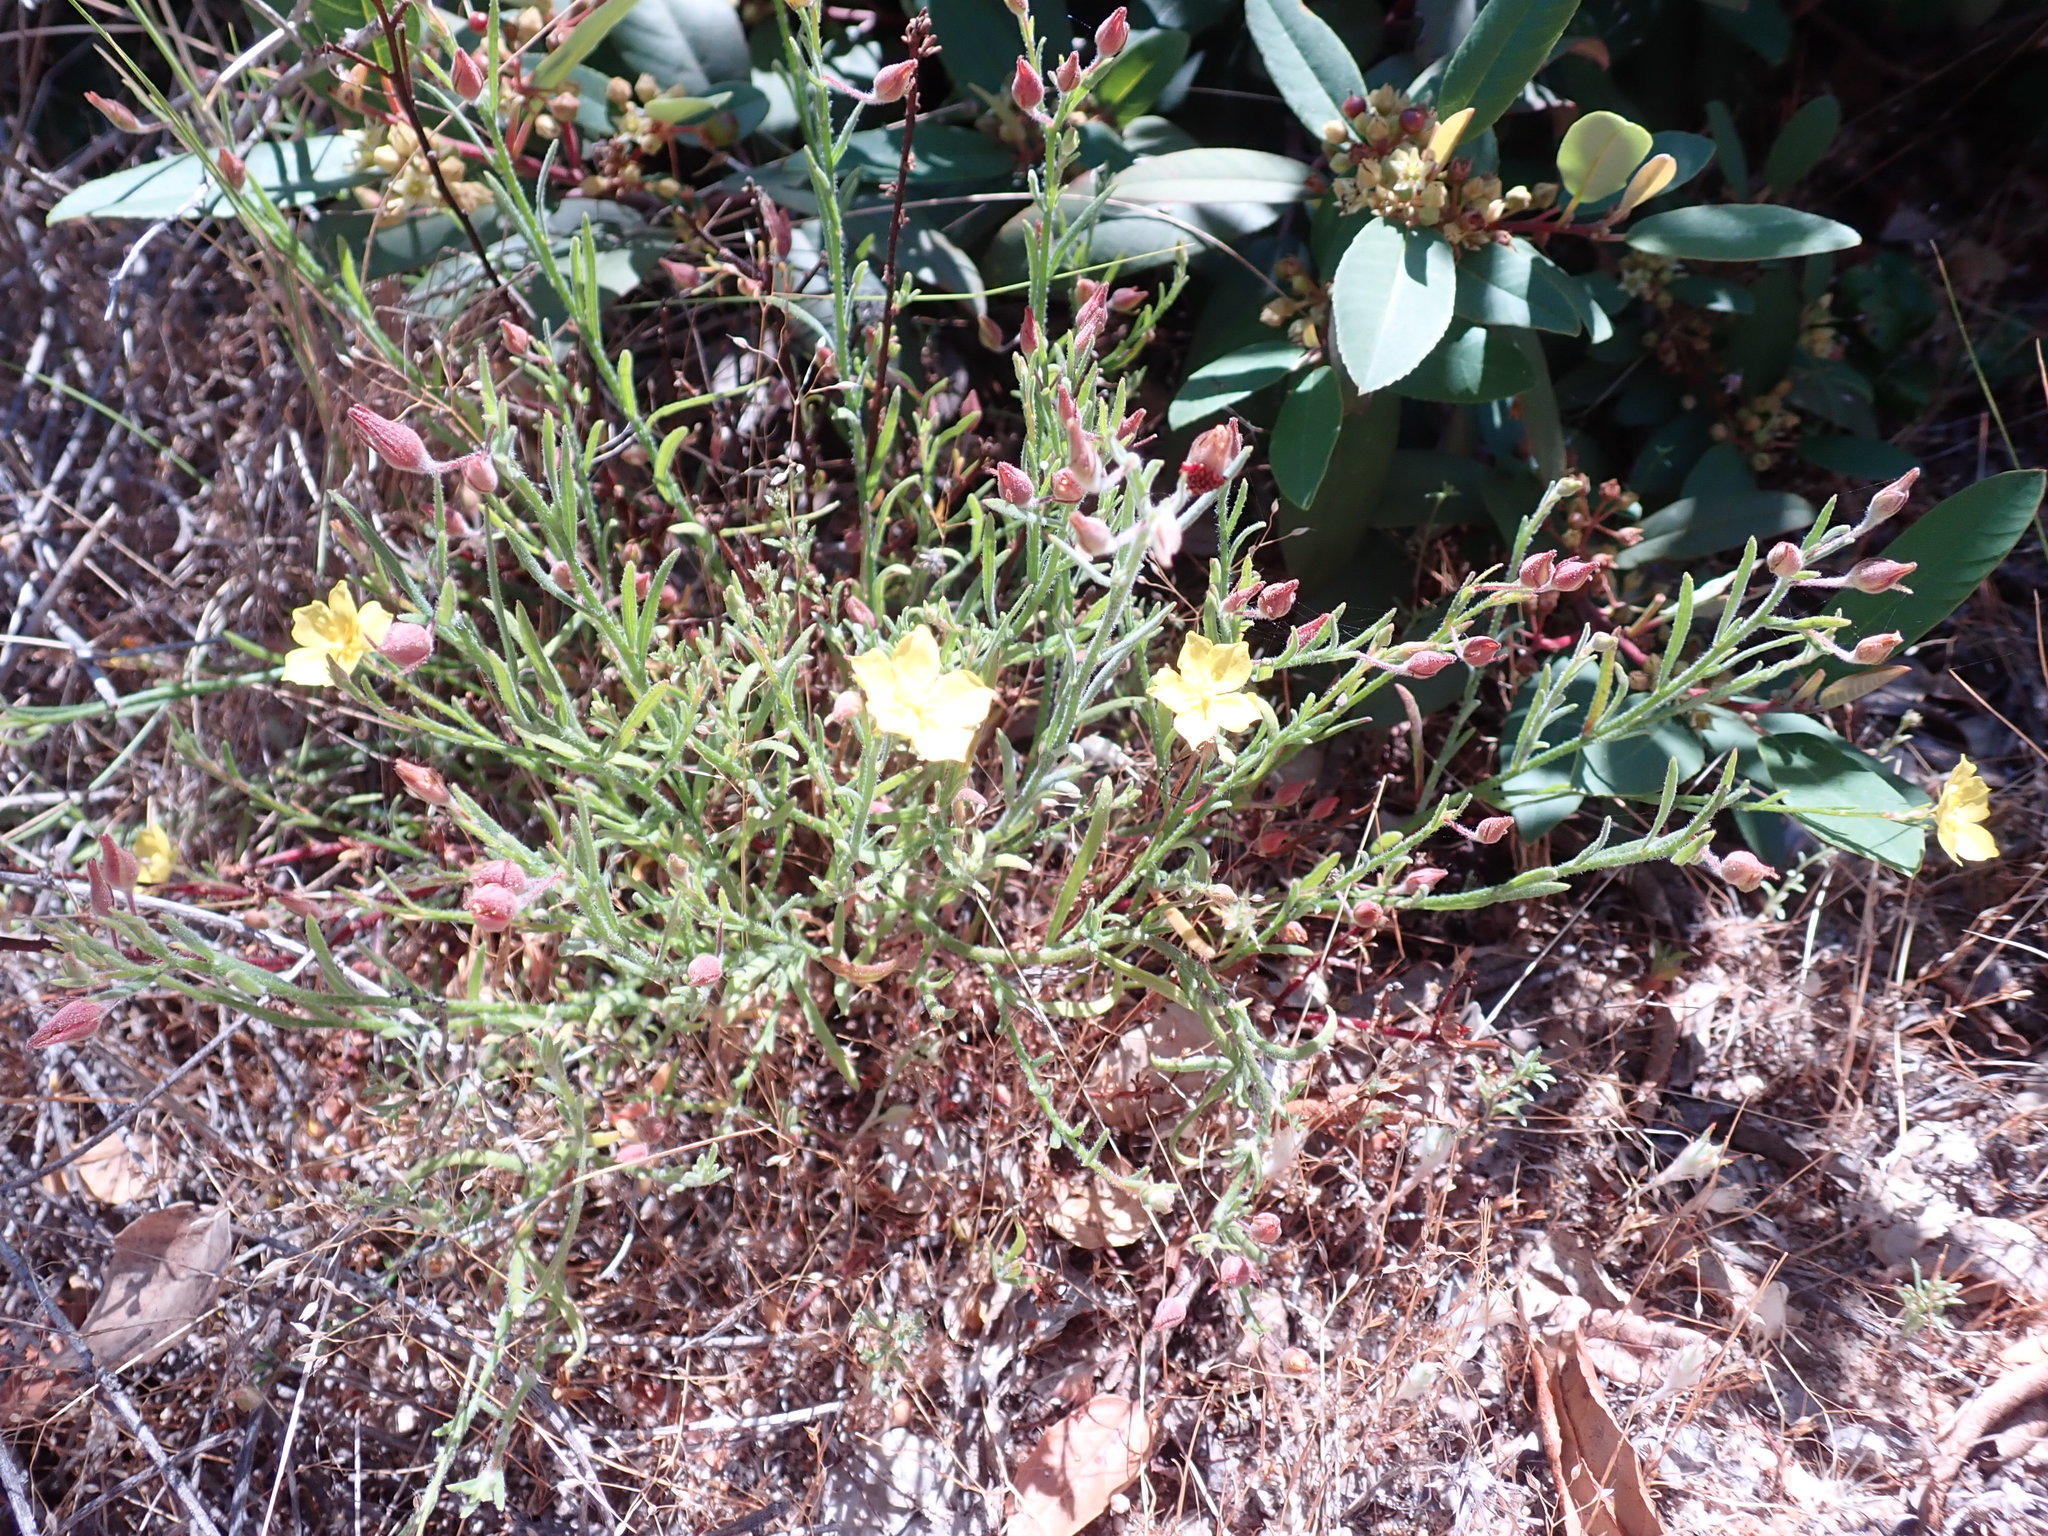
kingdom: Plantae
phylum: Tracheophyta
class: Magnoliopsida
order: Malvales
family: Cistaceae
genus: Crocanthemum
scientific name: Crocanthemum scoparium
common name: Broom-rose
